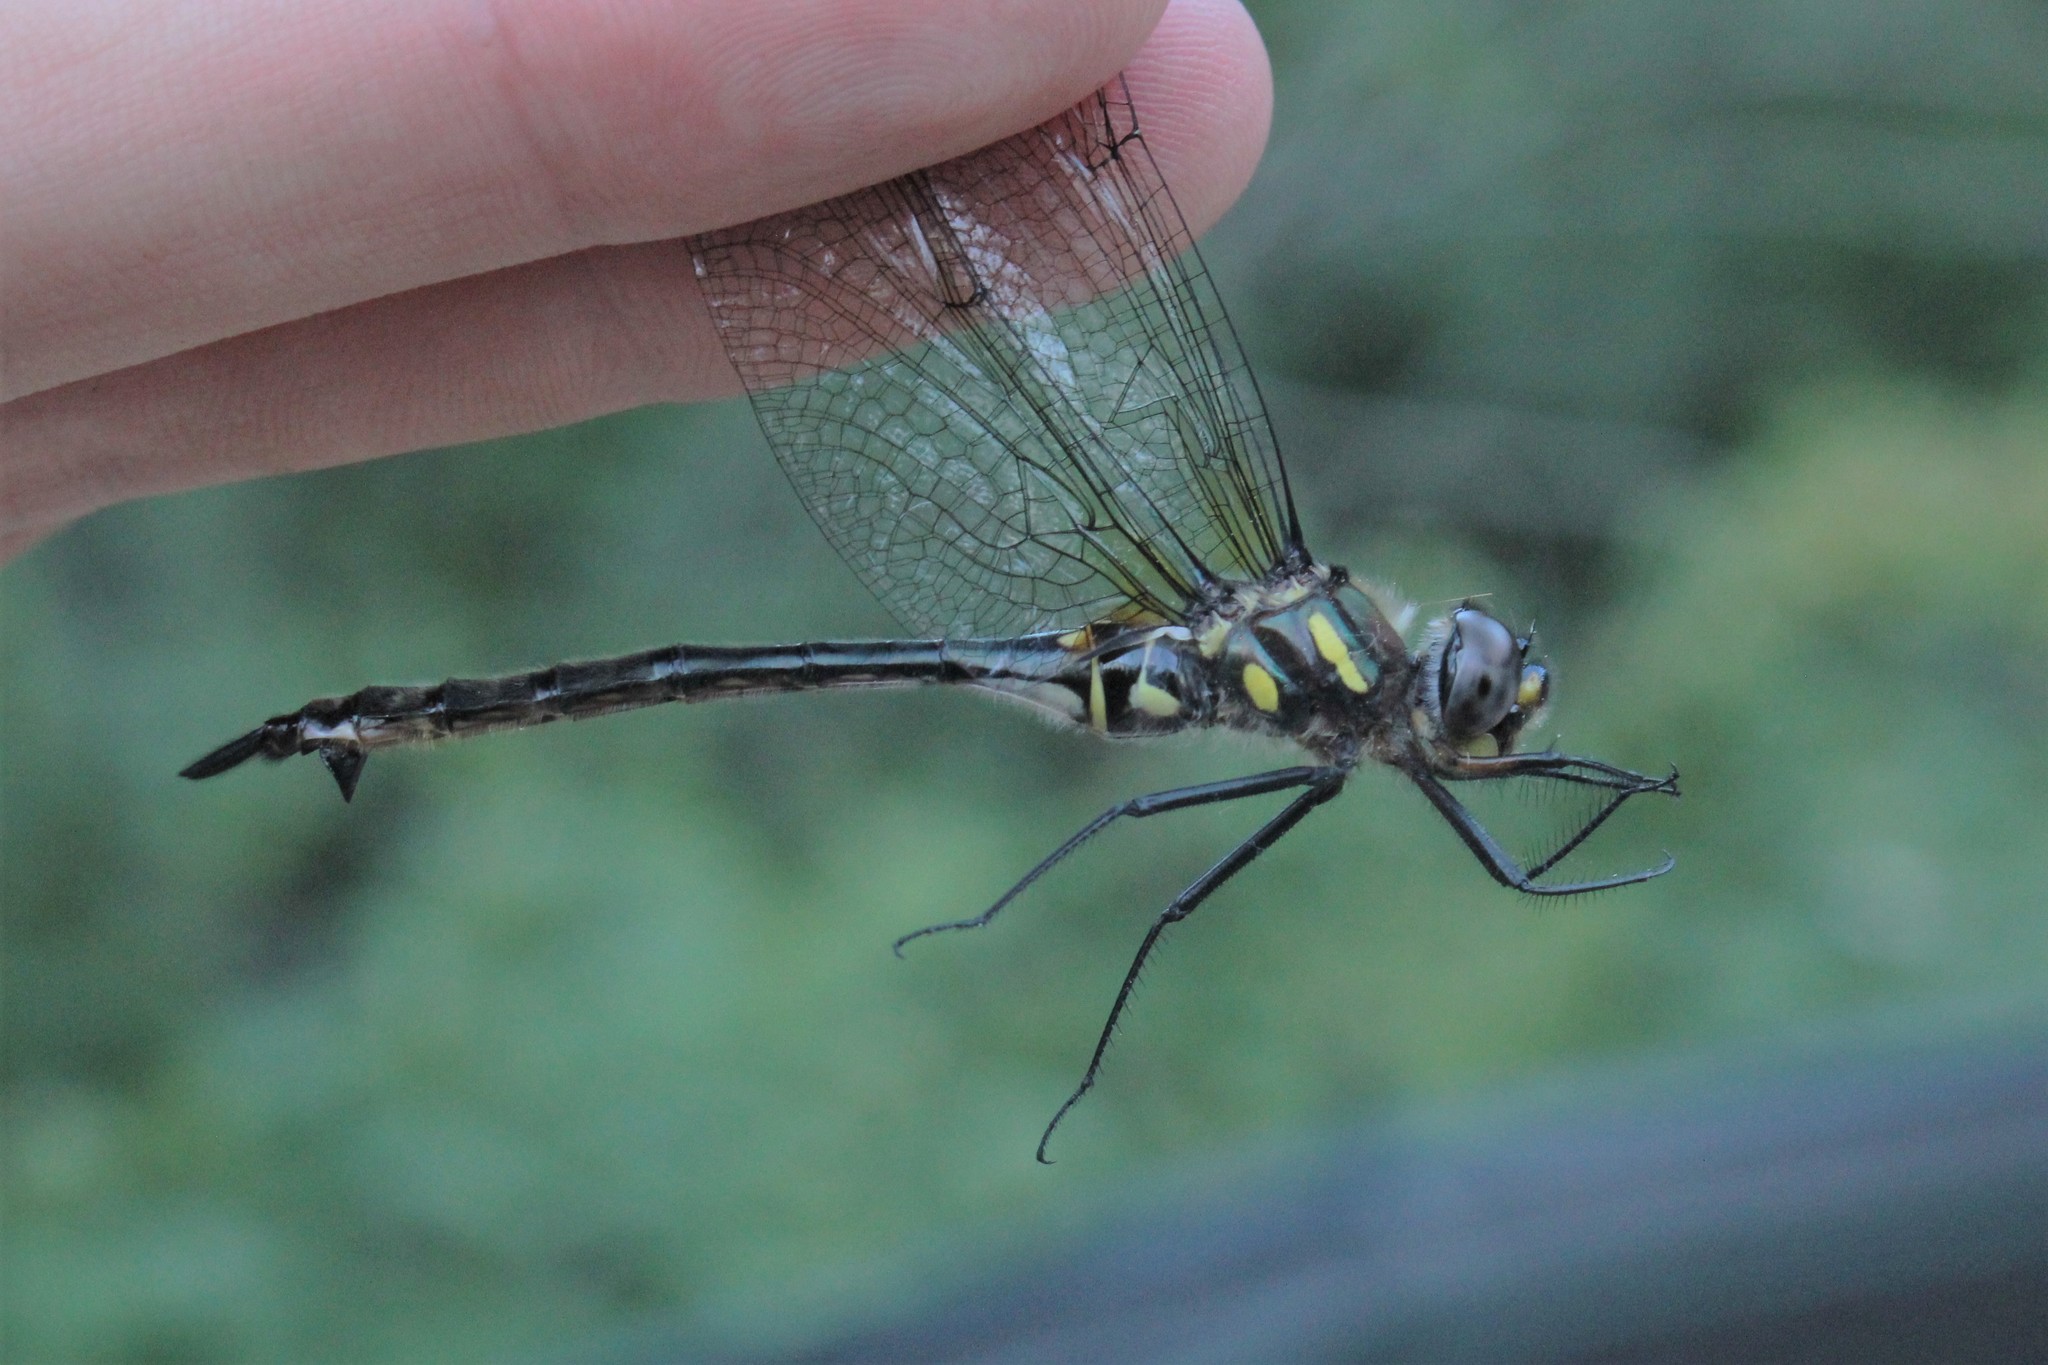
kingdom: Animalia
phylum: Arthropoda
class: Insecta
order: Odonata
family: Corduliidae
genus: Somatochlora
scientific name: Somatochlora elongata
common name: Ski-tipped emerald
